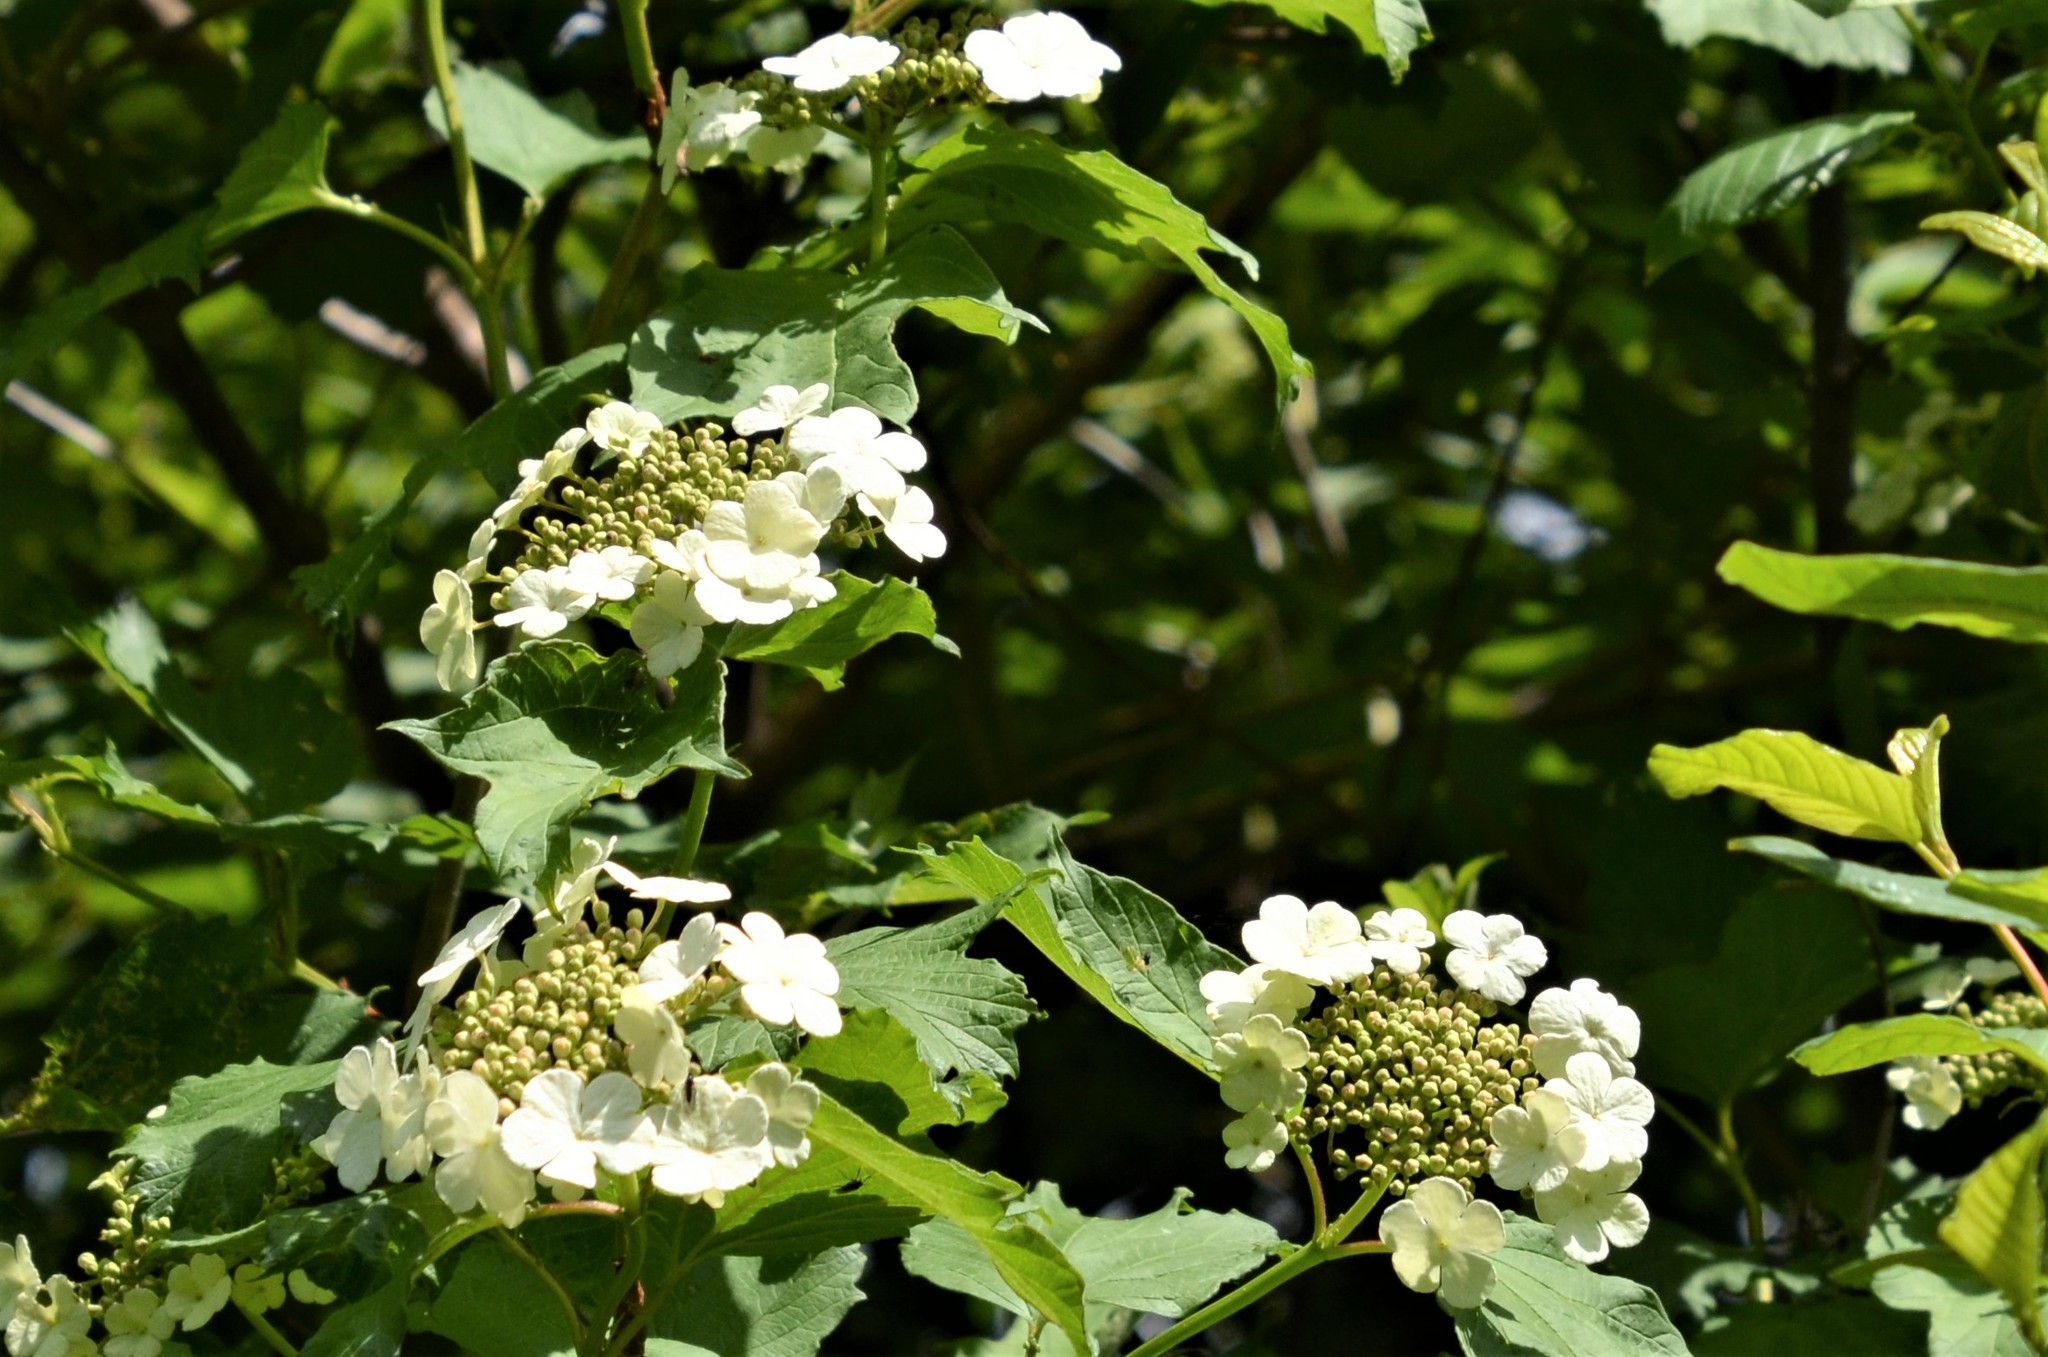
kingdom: Plantae
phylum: Tracheophyta
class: Magnoliopsida
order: Dipsacales
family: Viburnaceae
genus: Viburnum
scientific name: Viburnum opulus
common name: Guelder-rose
